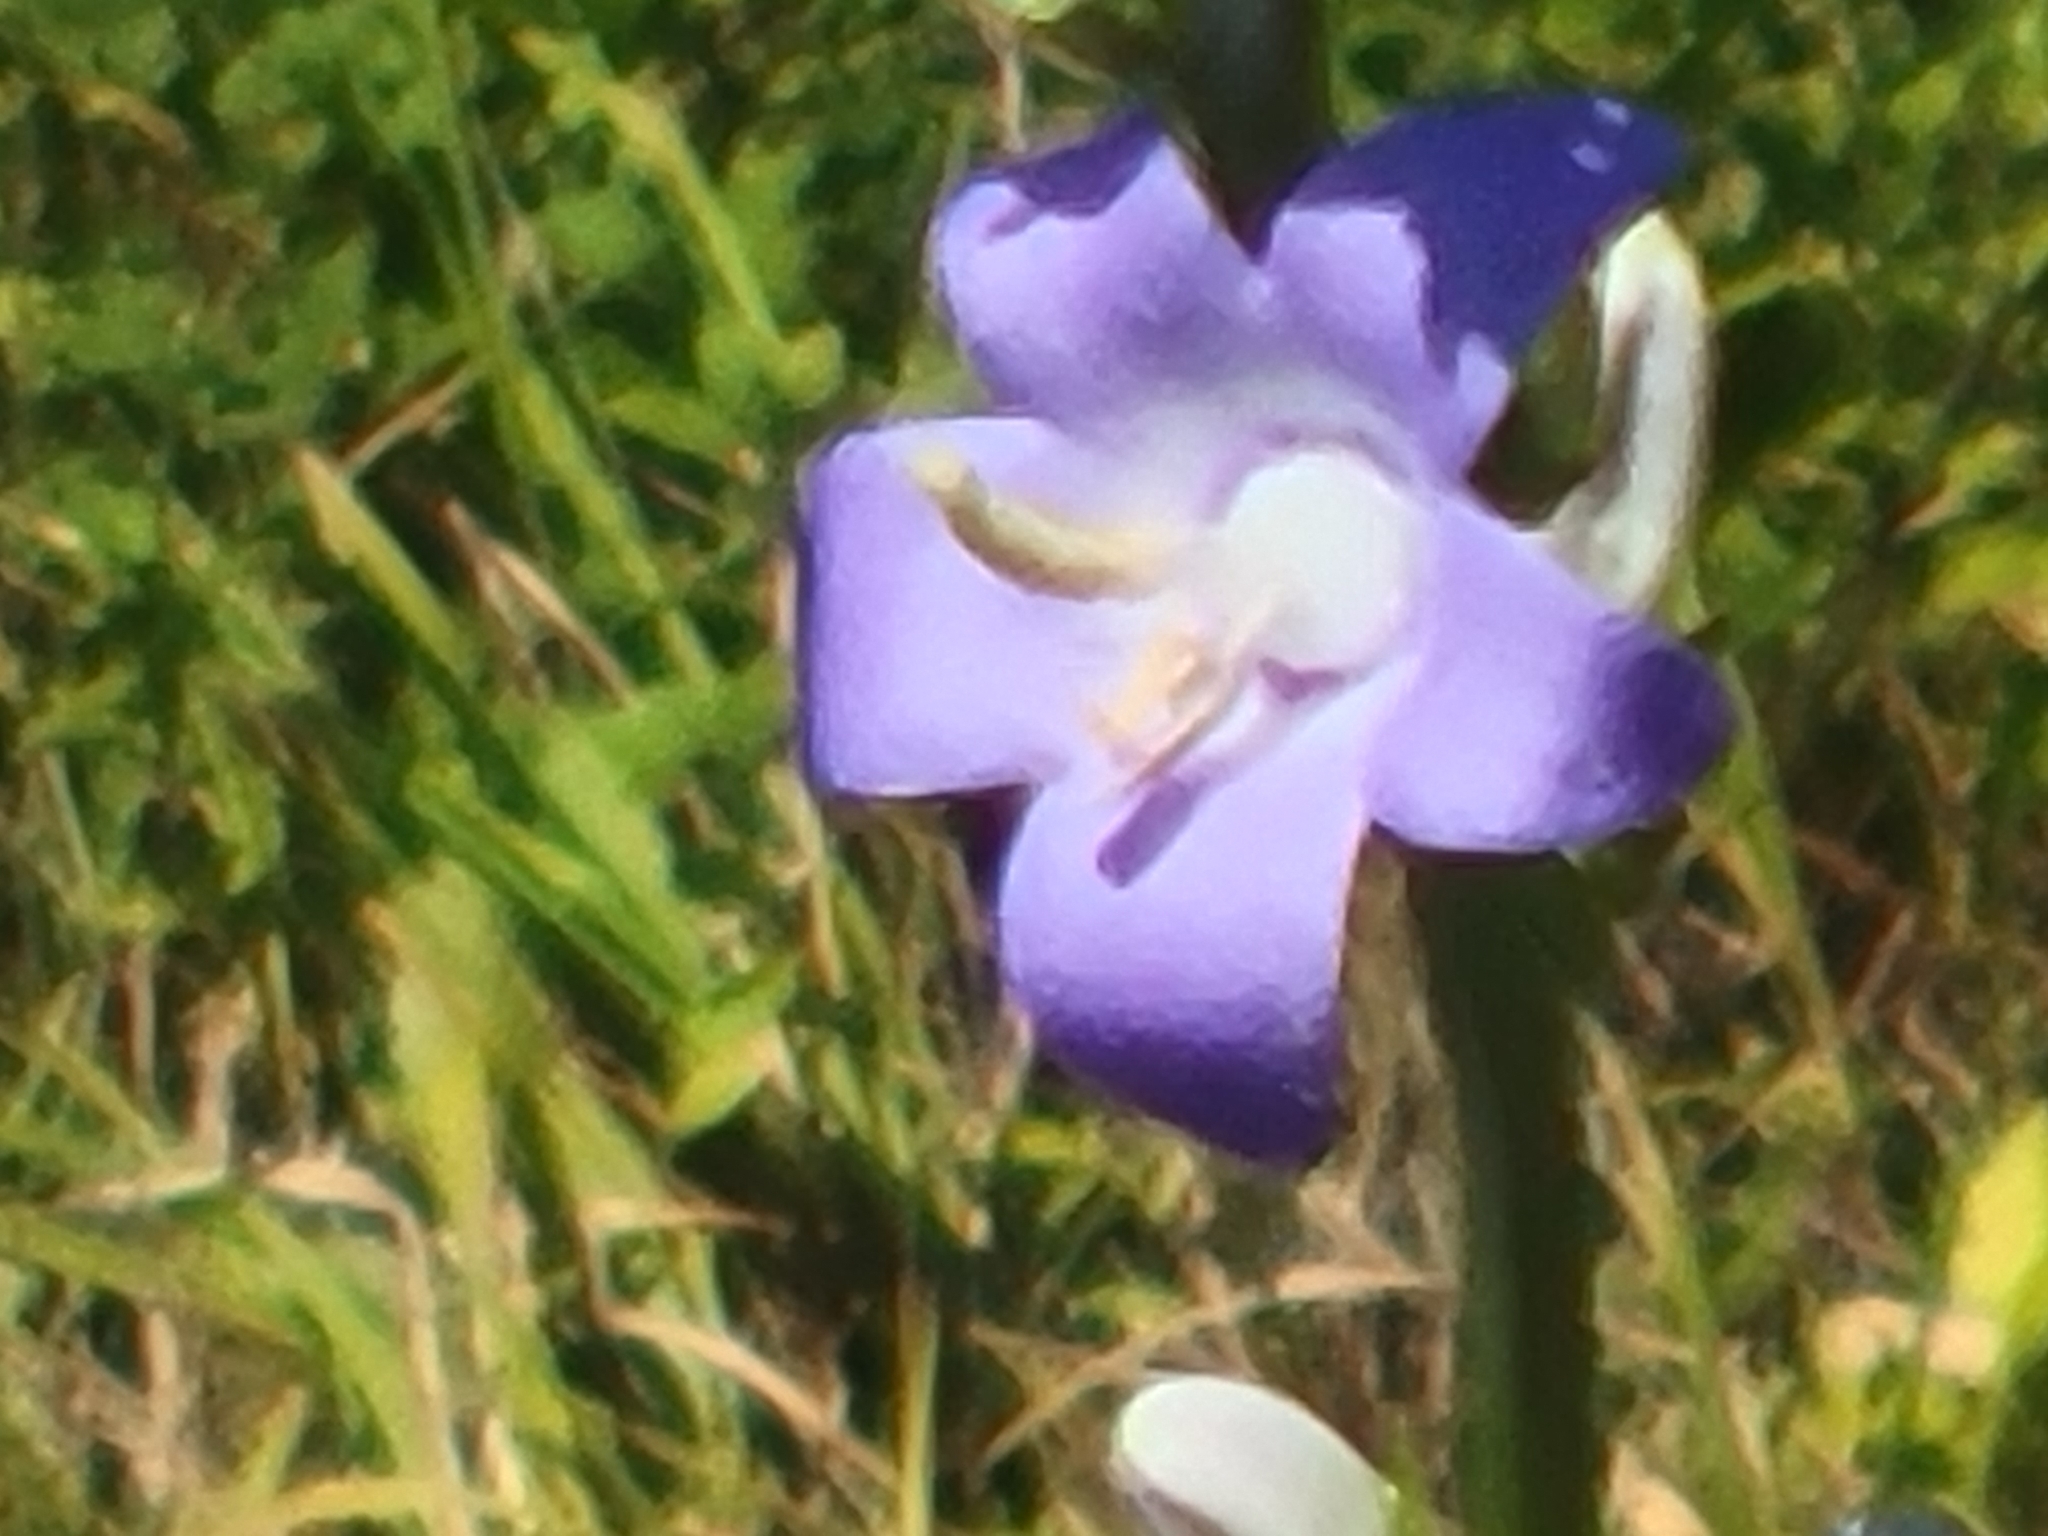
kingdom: Plantae
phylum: Tracheophyta
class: Magnoliopsida
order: Asterales
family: Campanulaceae
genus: Campanula
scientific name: Campanula pyramidalis
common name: Chimney bellflower
